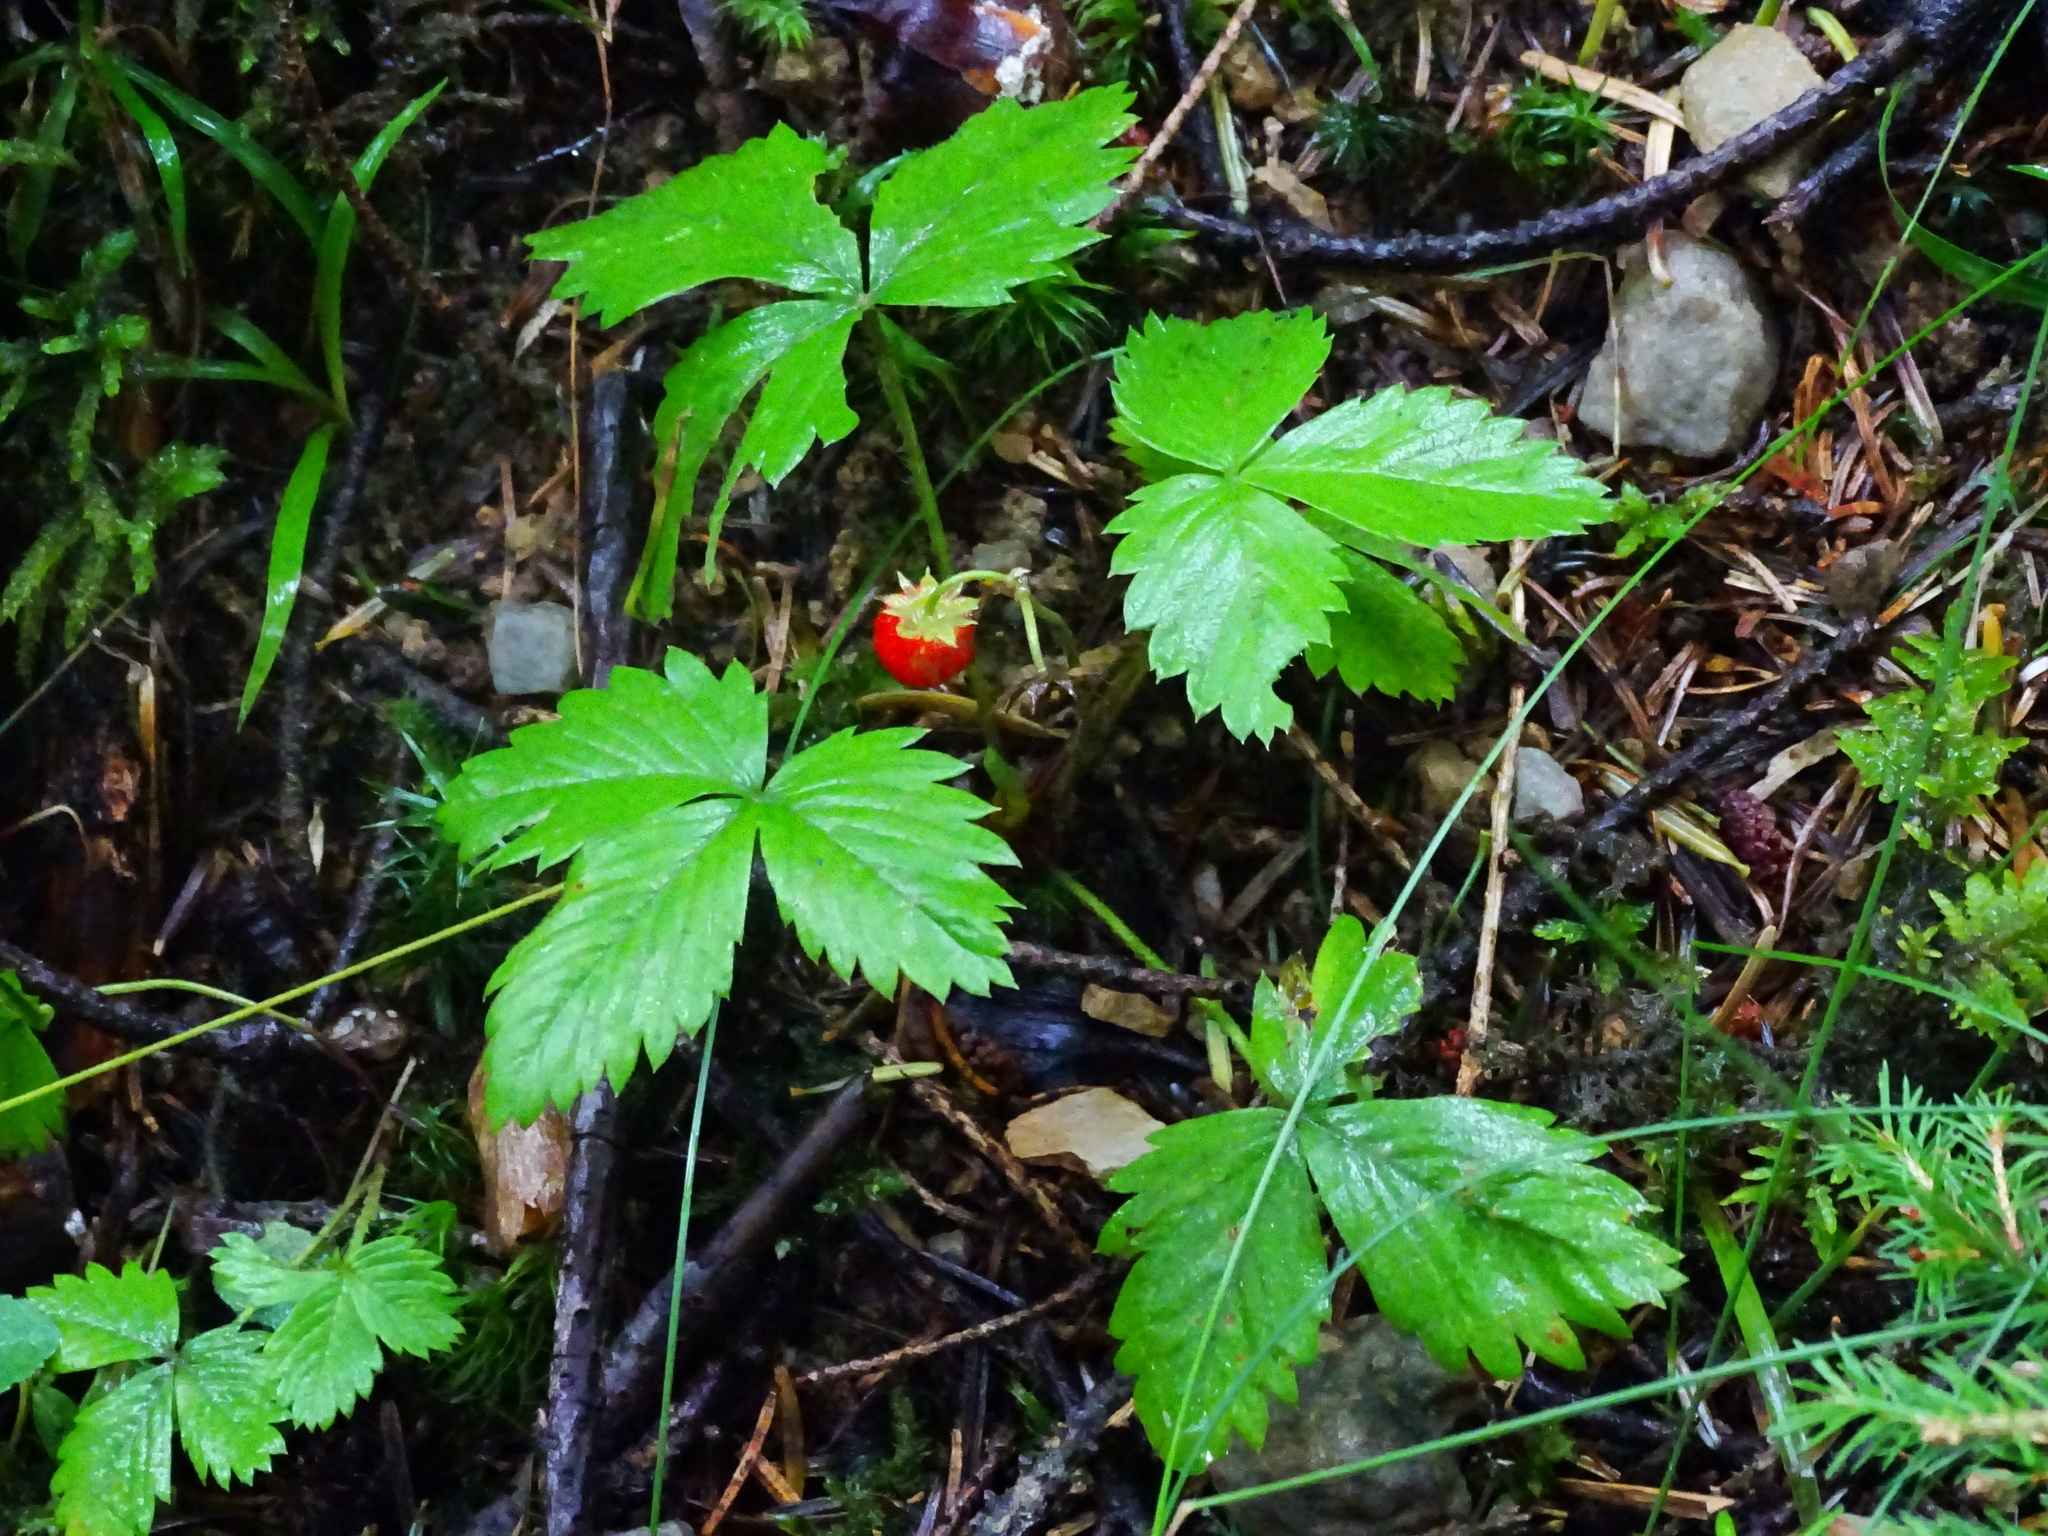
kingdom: Plantae
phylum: Tracheophyta
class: Magnoliopsida
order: Rosales
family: Rosaceae
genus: Fragaria
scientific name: Fragaria vesca
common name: Wild strawberry
